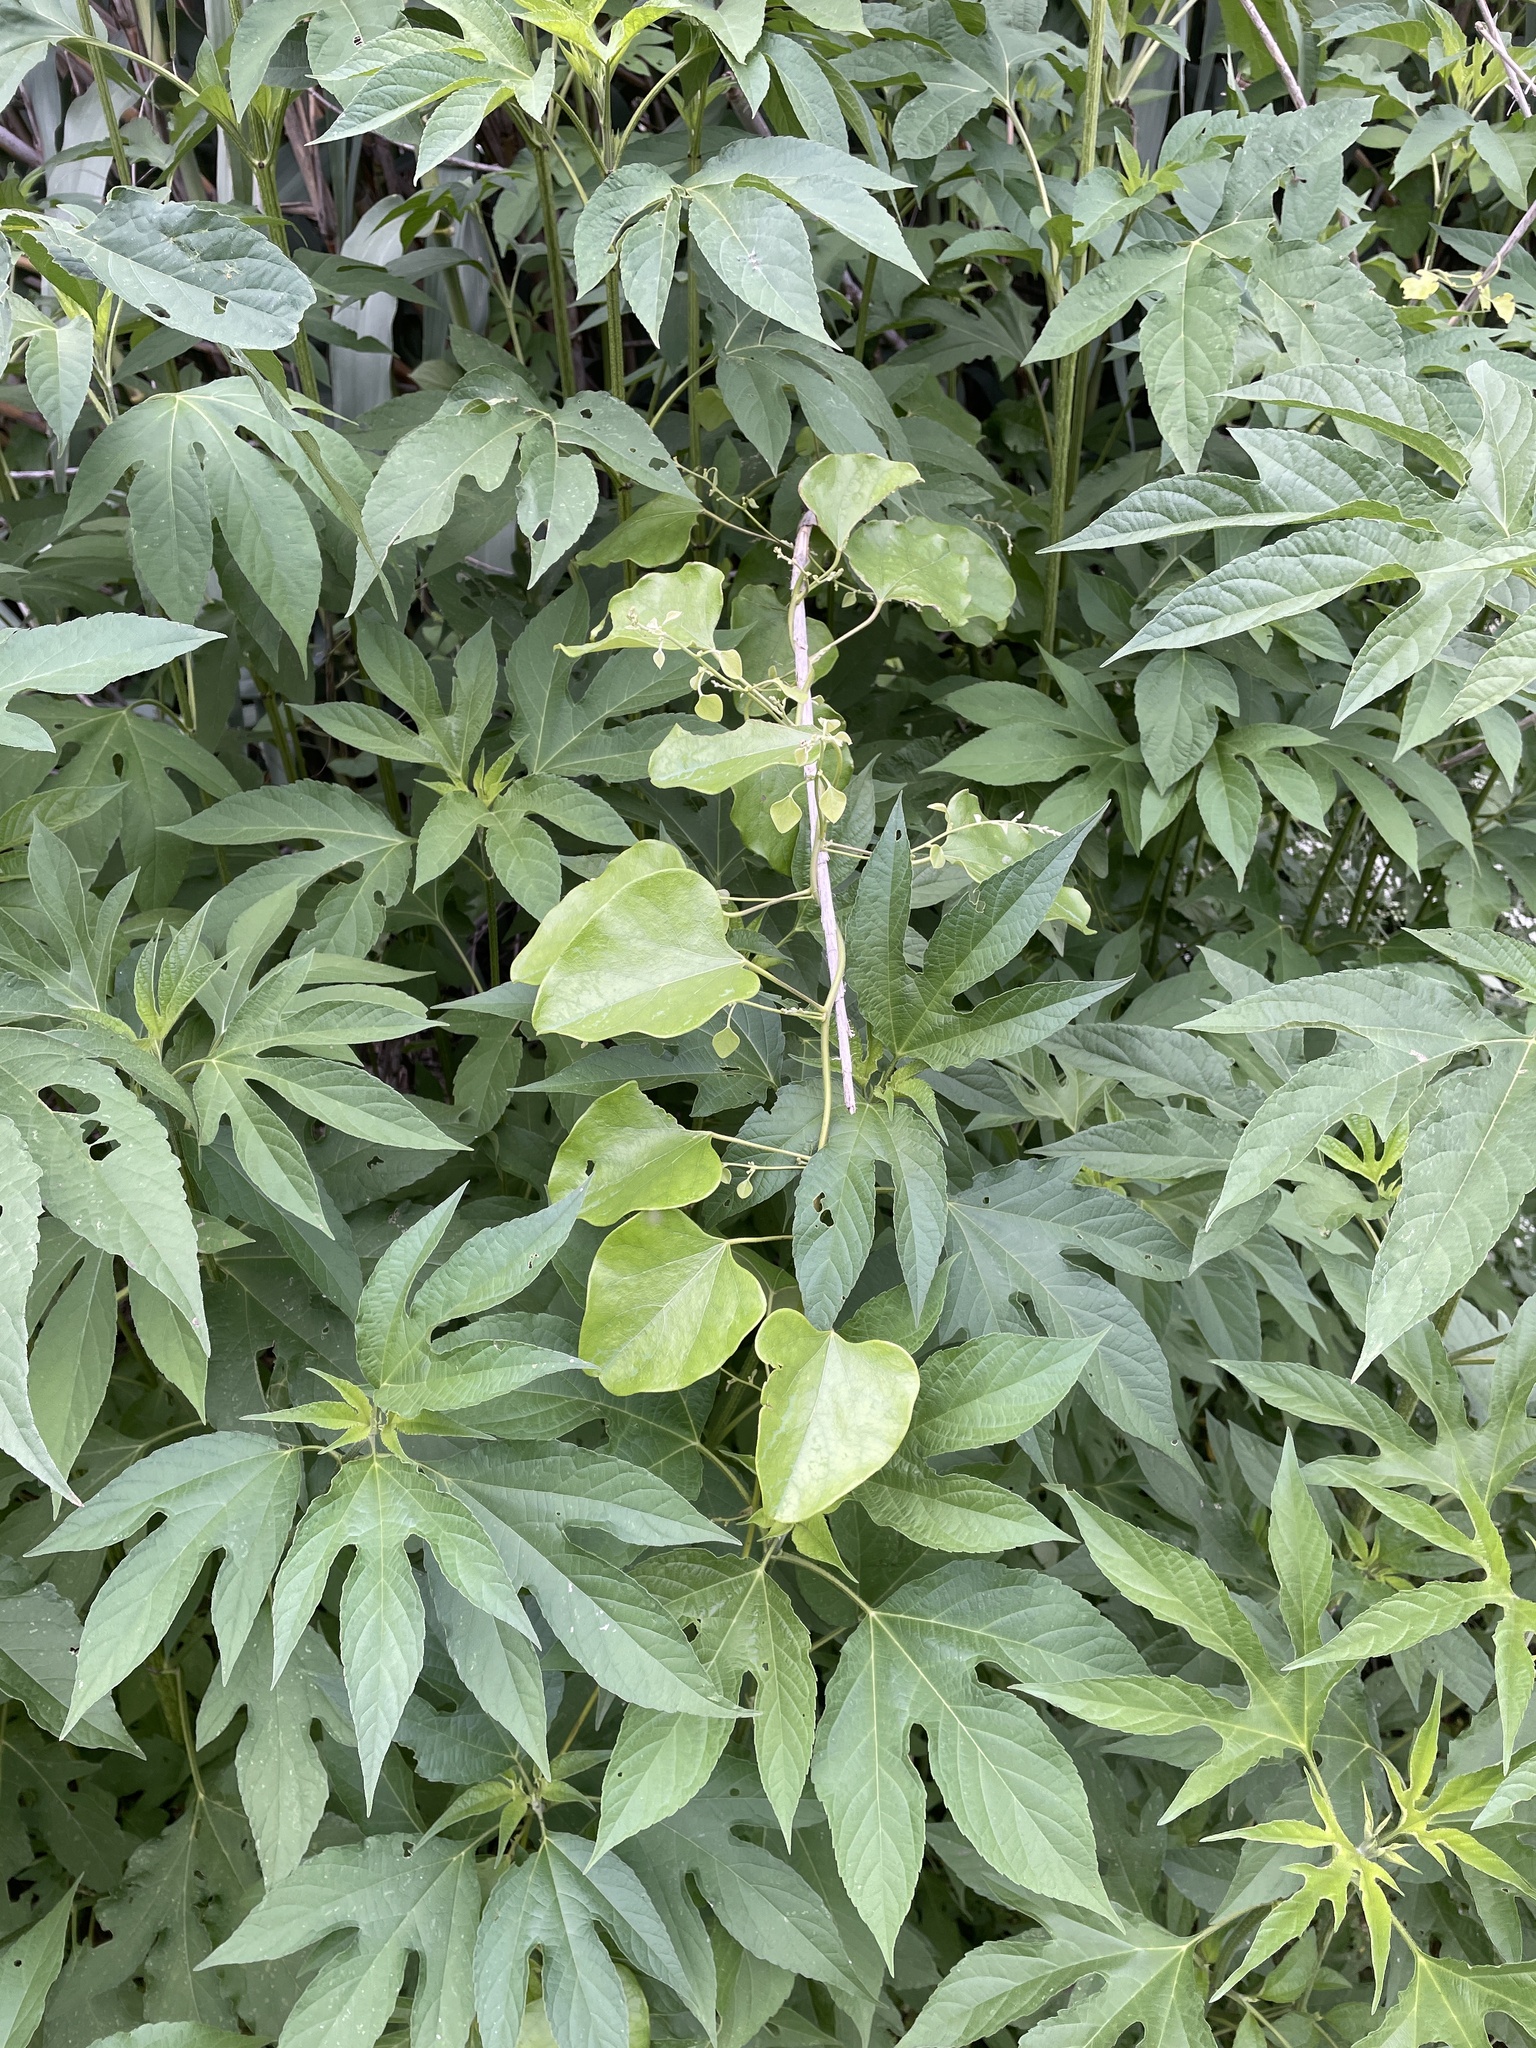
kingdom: Plantae
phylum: Tracheophyta
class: Magnoliopsida
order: Ranunculales
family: Menispermaceae
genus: Cocculus
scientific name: Cocculus carolinus
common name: Carolina moonseed
